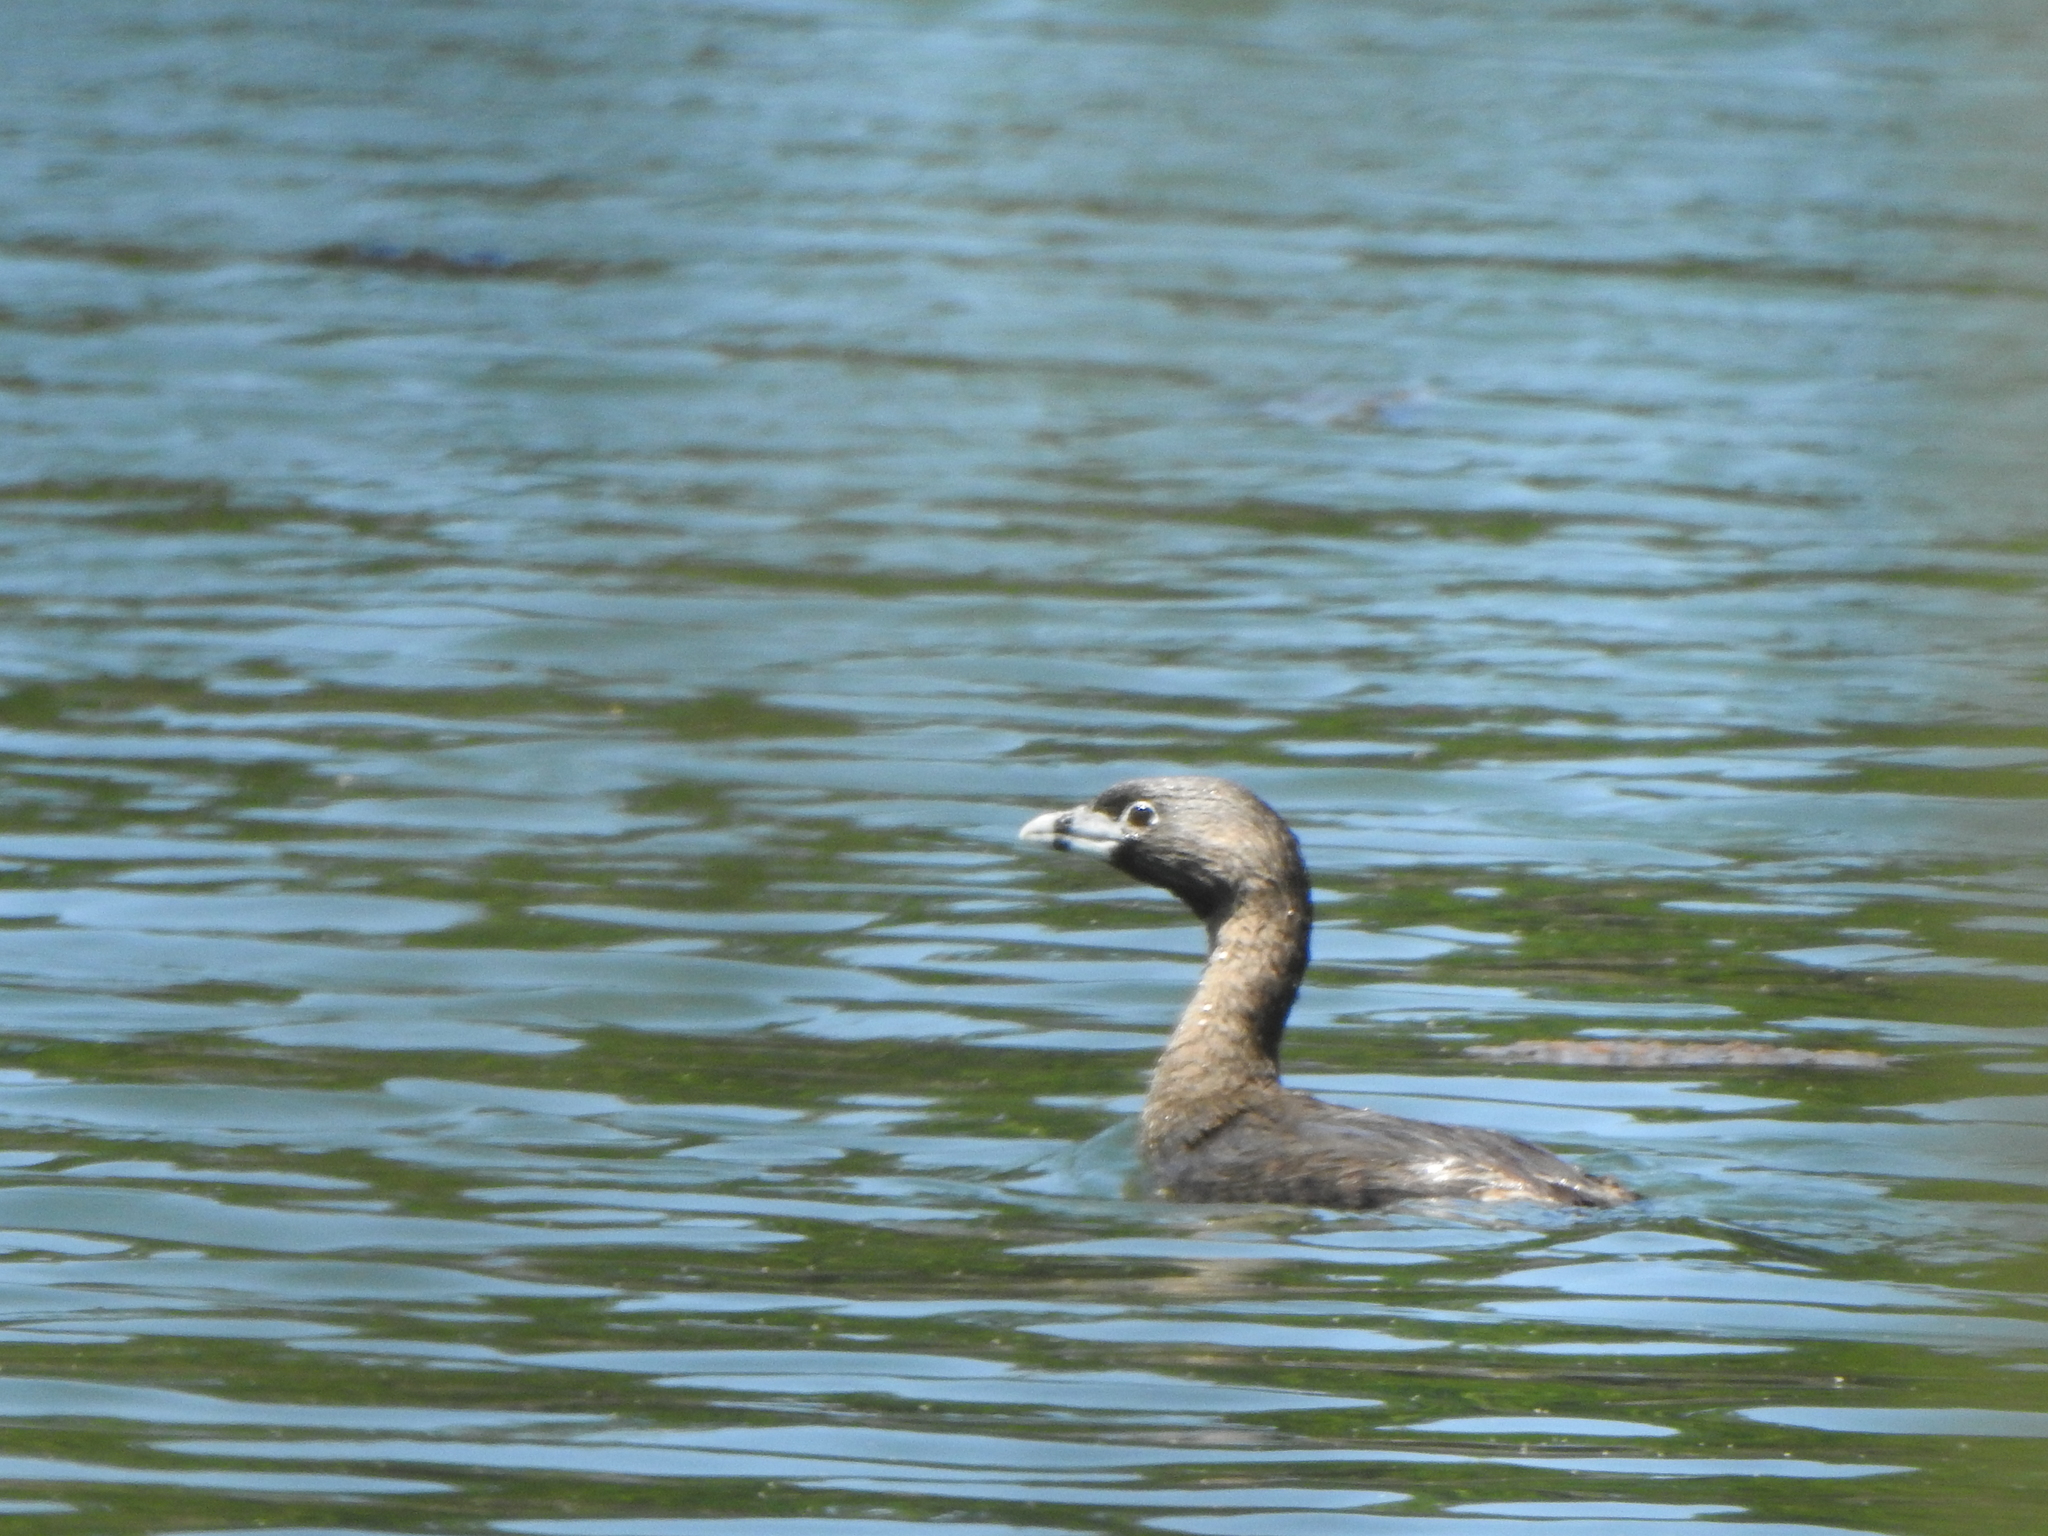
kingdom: Animalia
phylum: Chordata
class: Aves
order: Podicipediformes
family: Podicipedidae
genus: Podilymbus
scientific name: Podilymbus podiceps
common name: Pied-billed grebe
